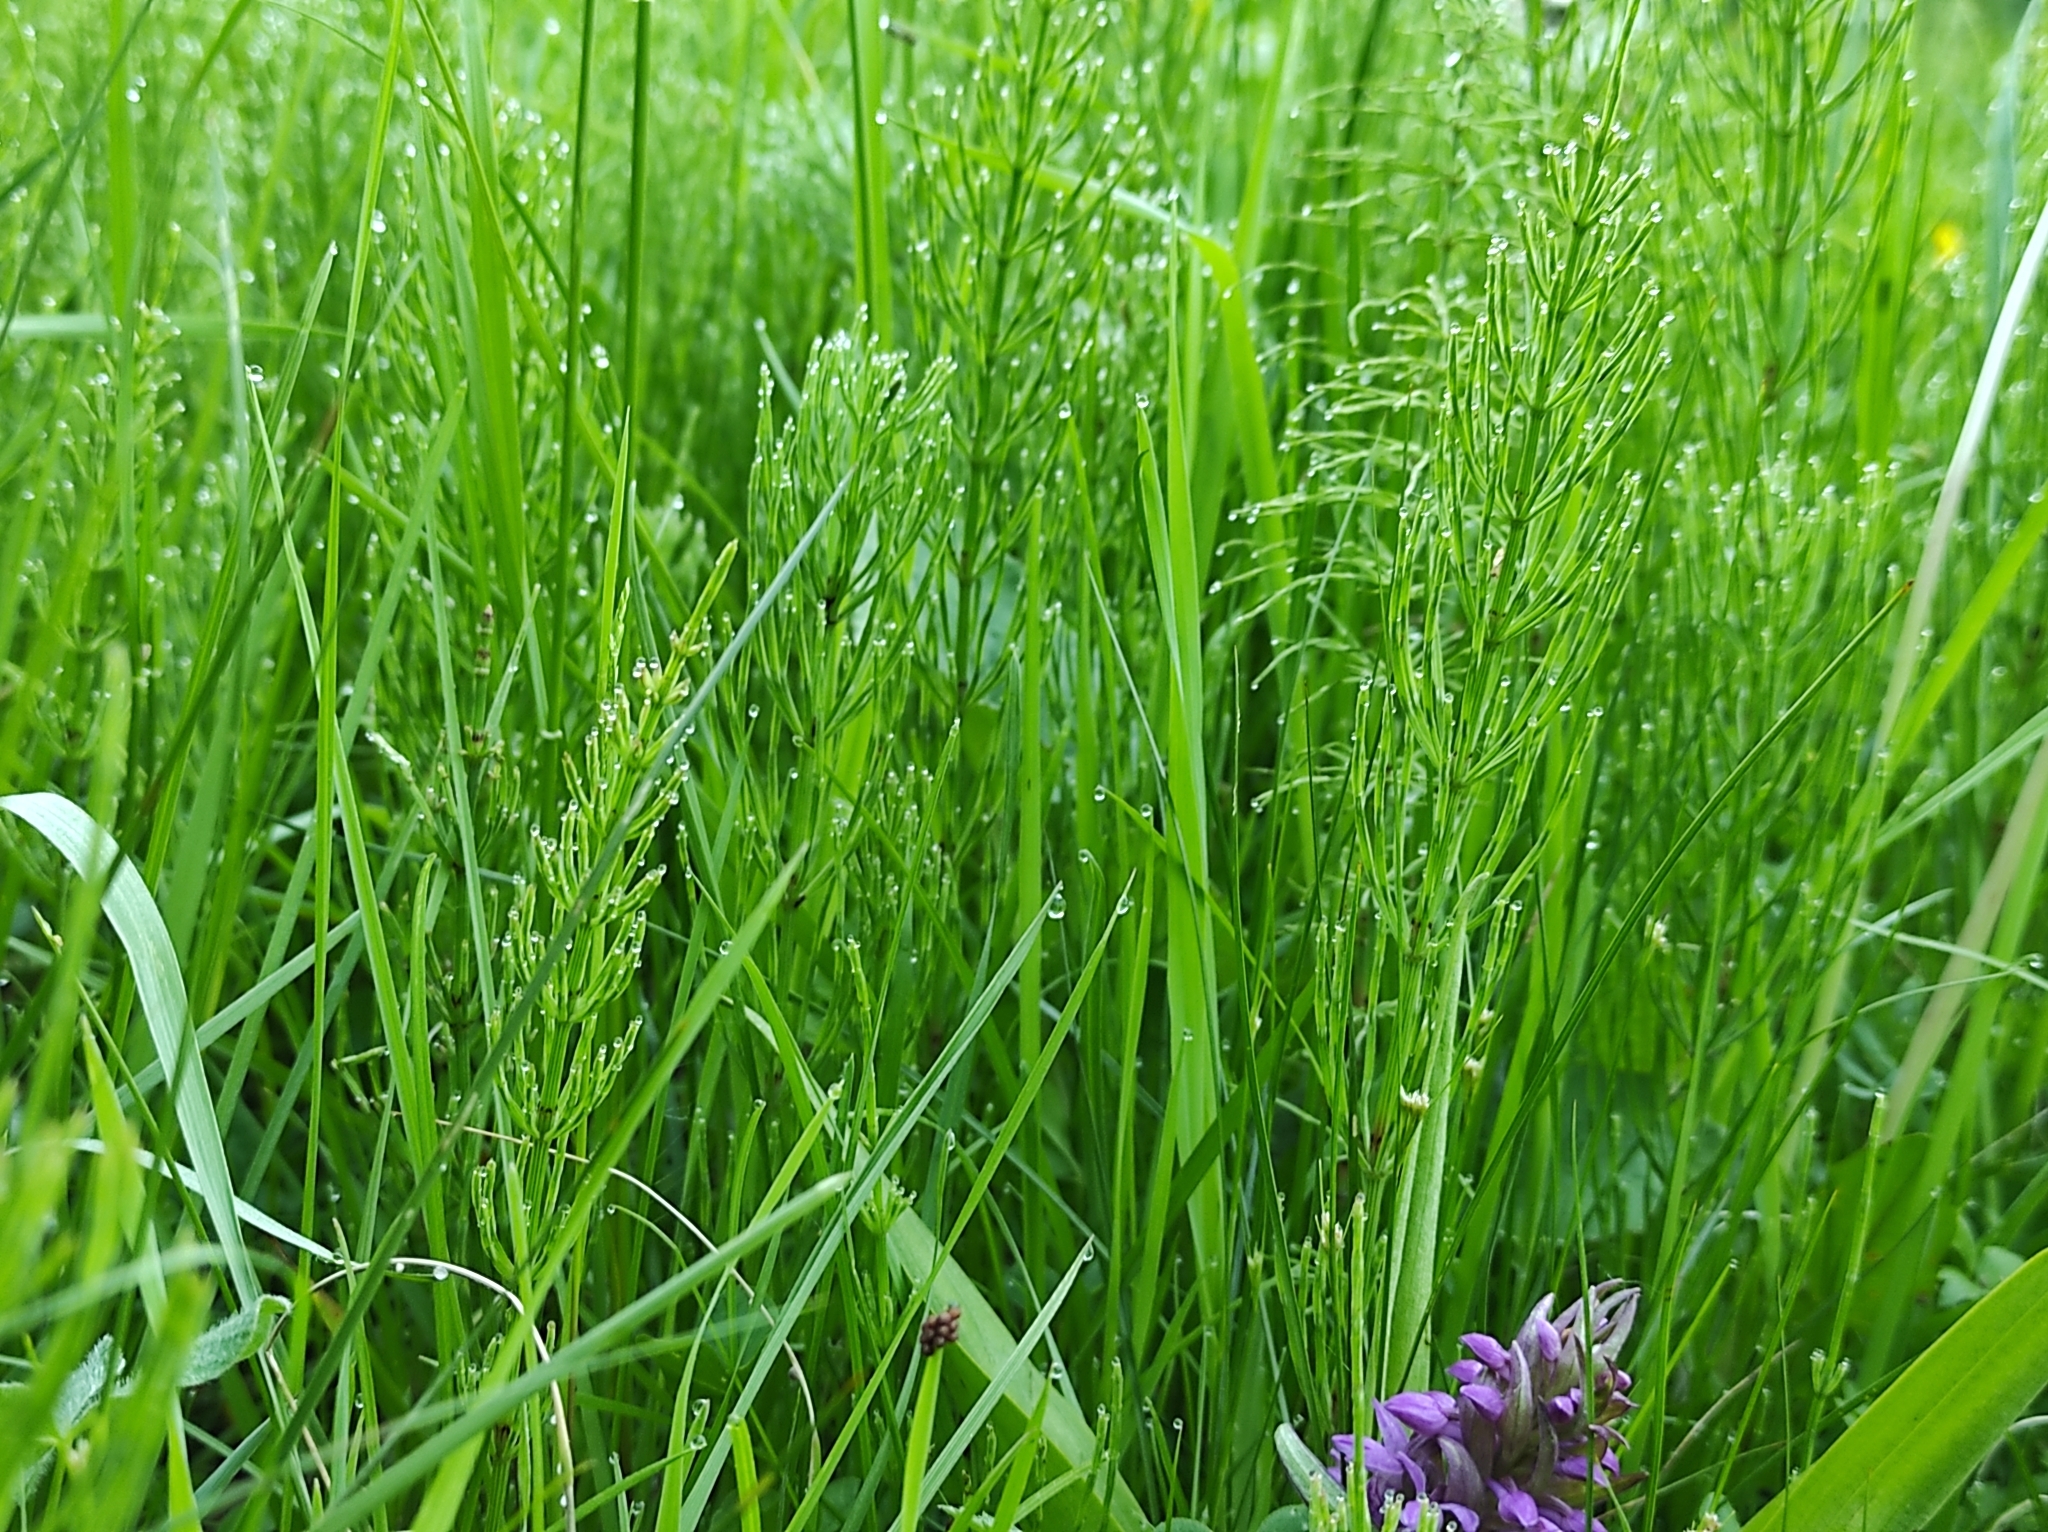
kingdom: Plantae
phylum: Tracheophyta
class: Polypodiopsida
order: Equisetales
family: Equisetaceae
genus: Equisetum
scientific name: Equisetum arvense
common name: Field horsetail
